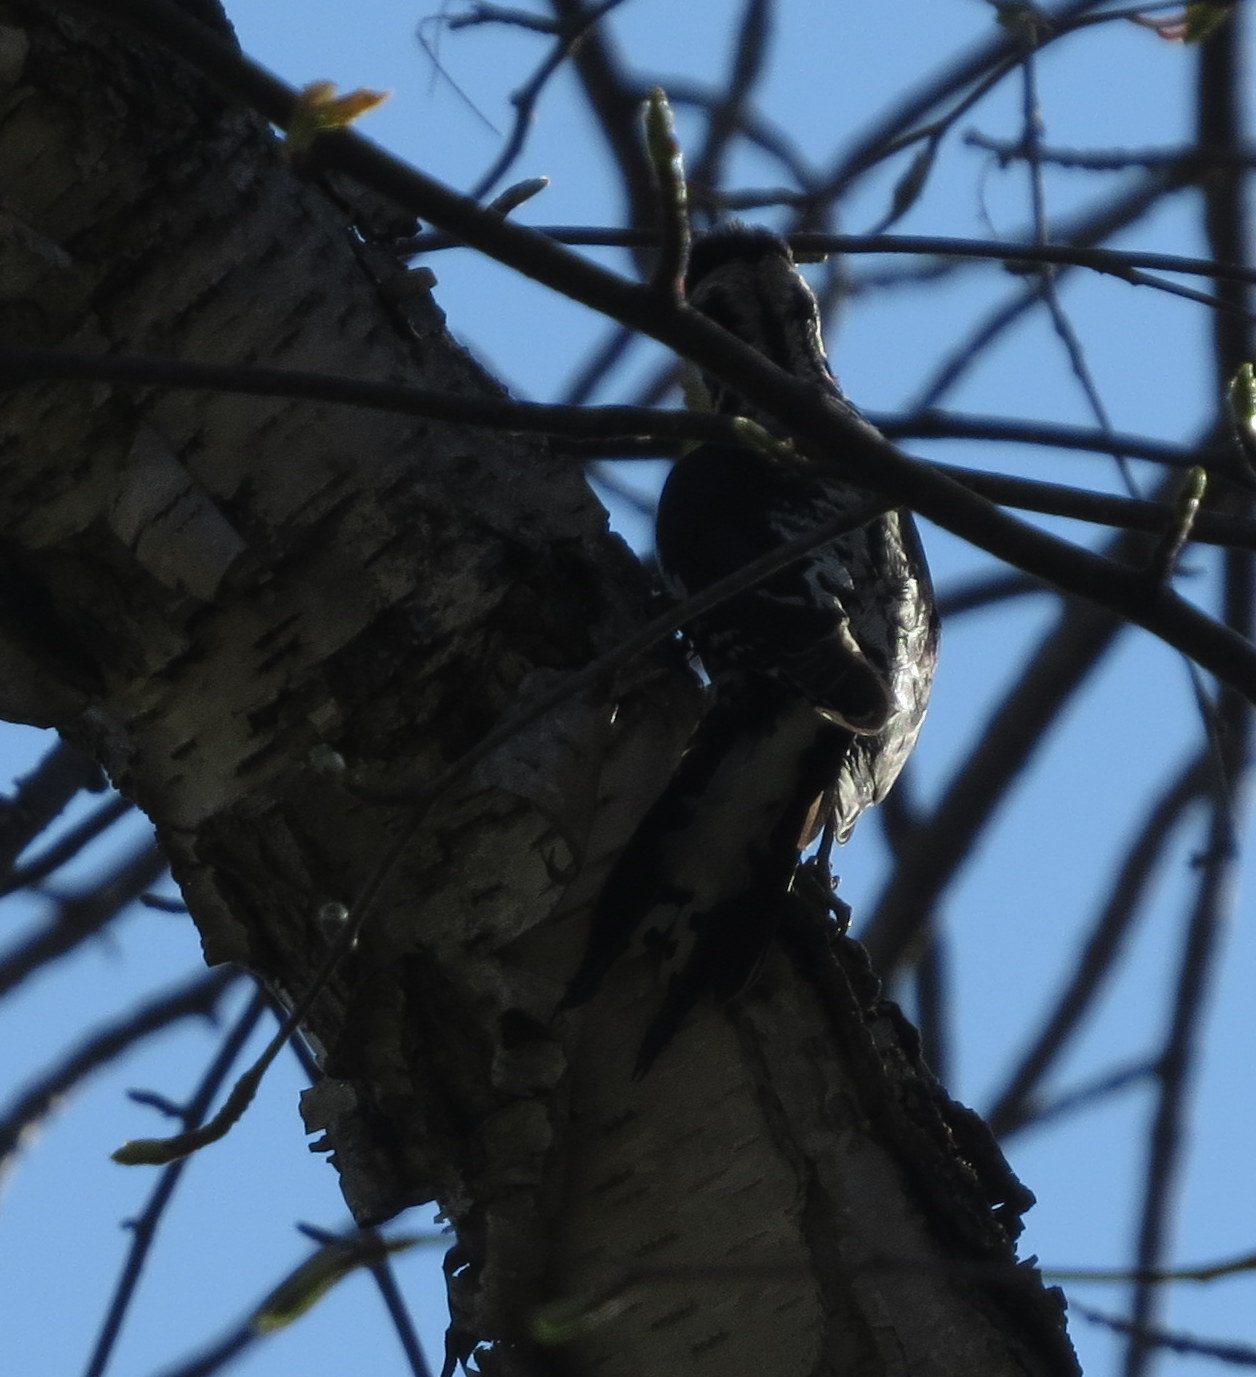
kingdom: Animalia
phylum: Chordata
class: Aves
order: Piciformes
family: Picidae
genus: Sphyrapicus
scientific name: Sphyrapicus varius
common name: Yellow-bellied sapsucker
